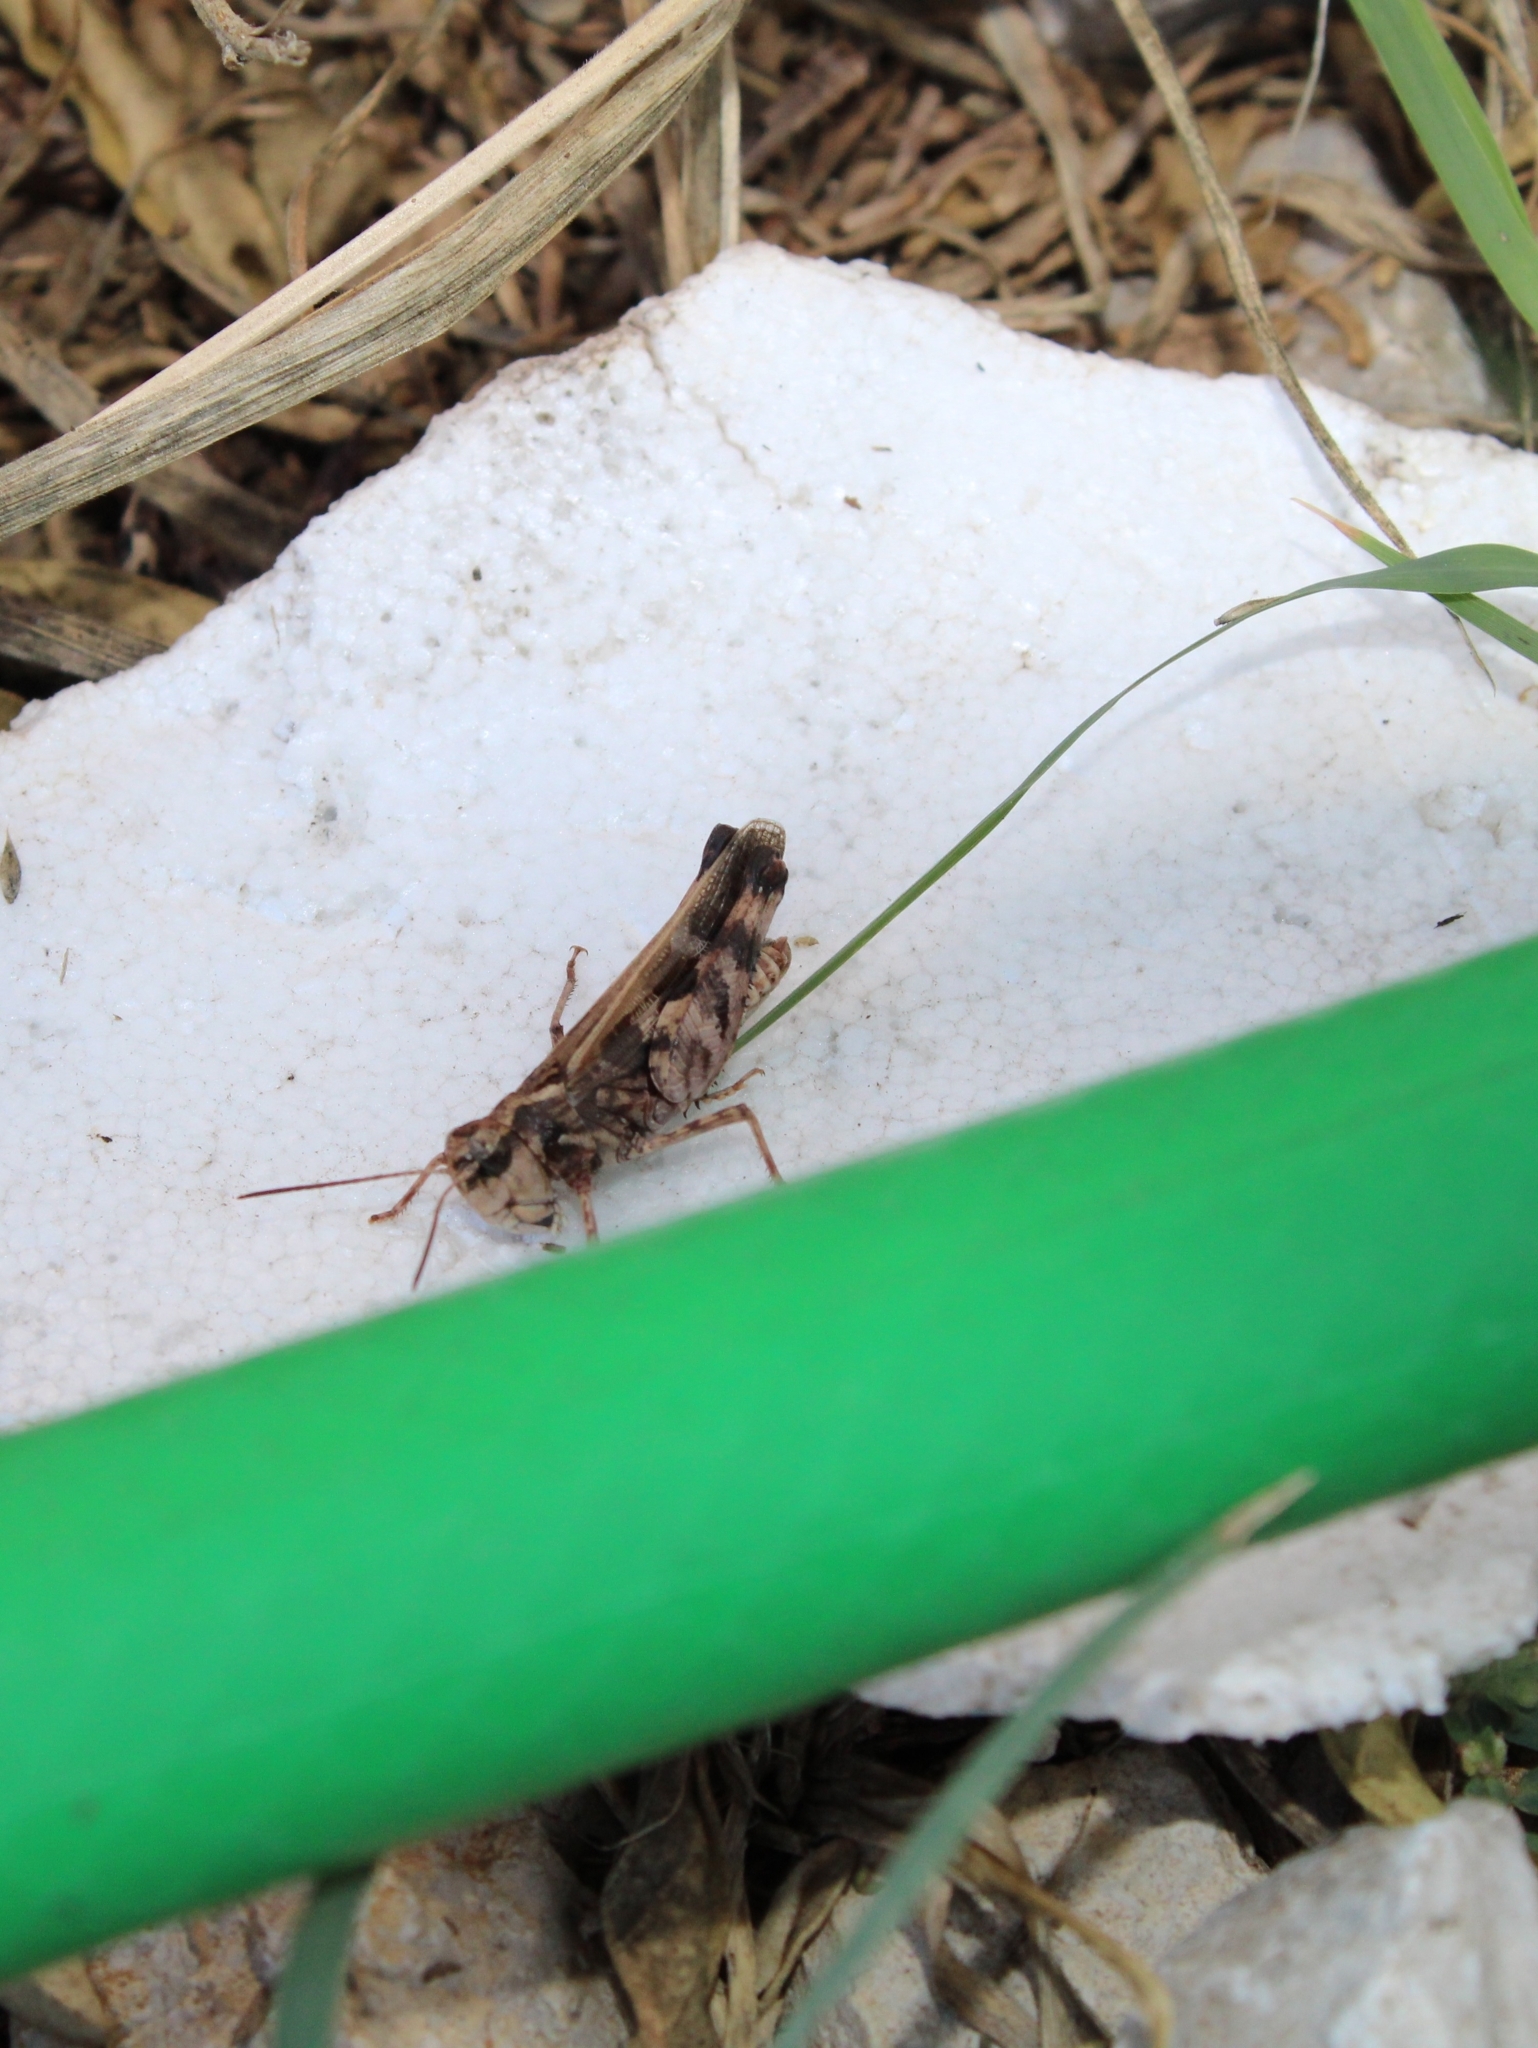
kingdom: Animalia
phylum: Arthropoda
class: Insecta
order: Orthoptera
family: Acrididae
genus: Encoptolophus
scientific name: Encoptolophus costalis
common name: Dusky grasshopper
